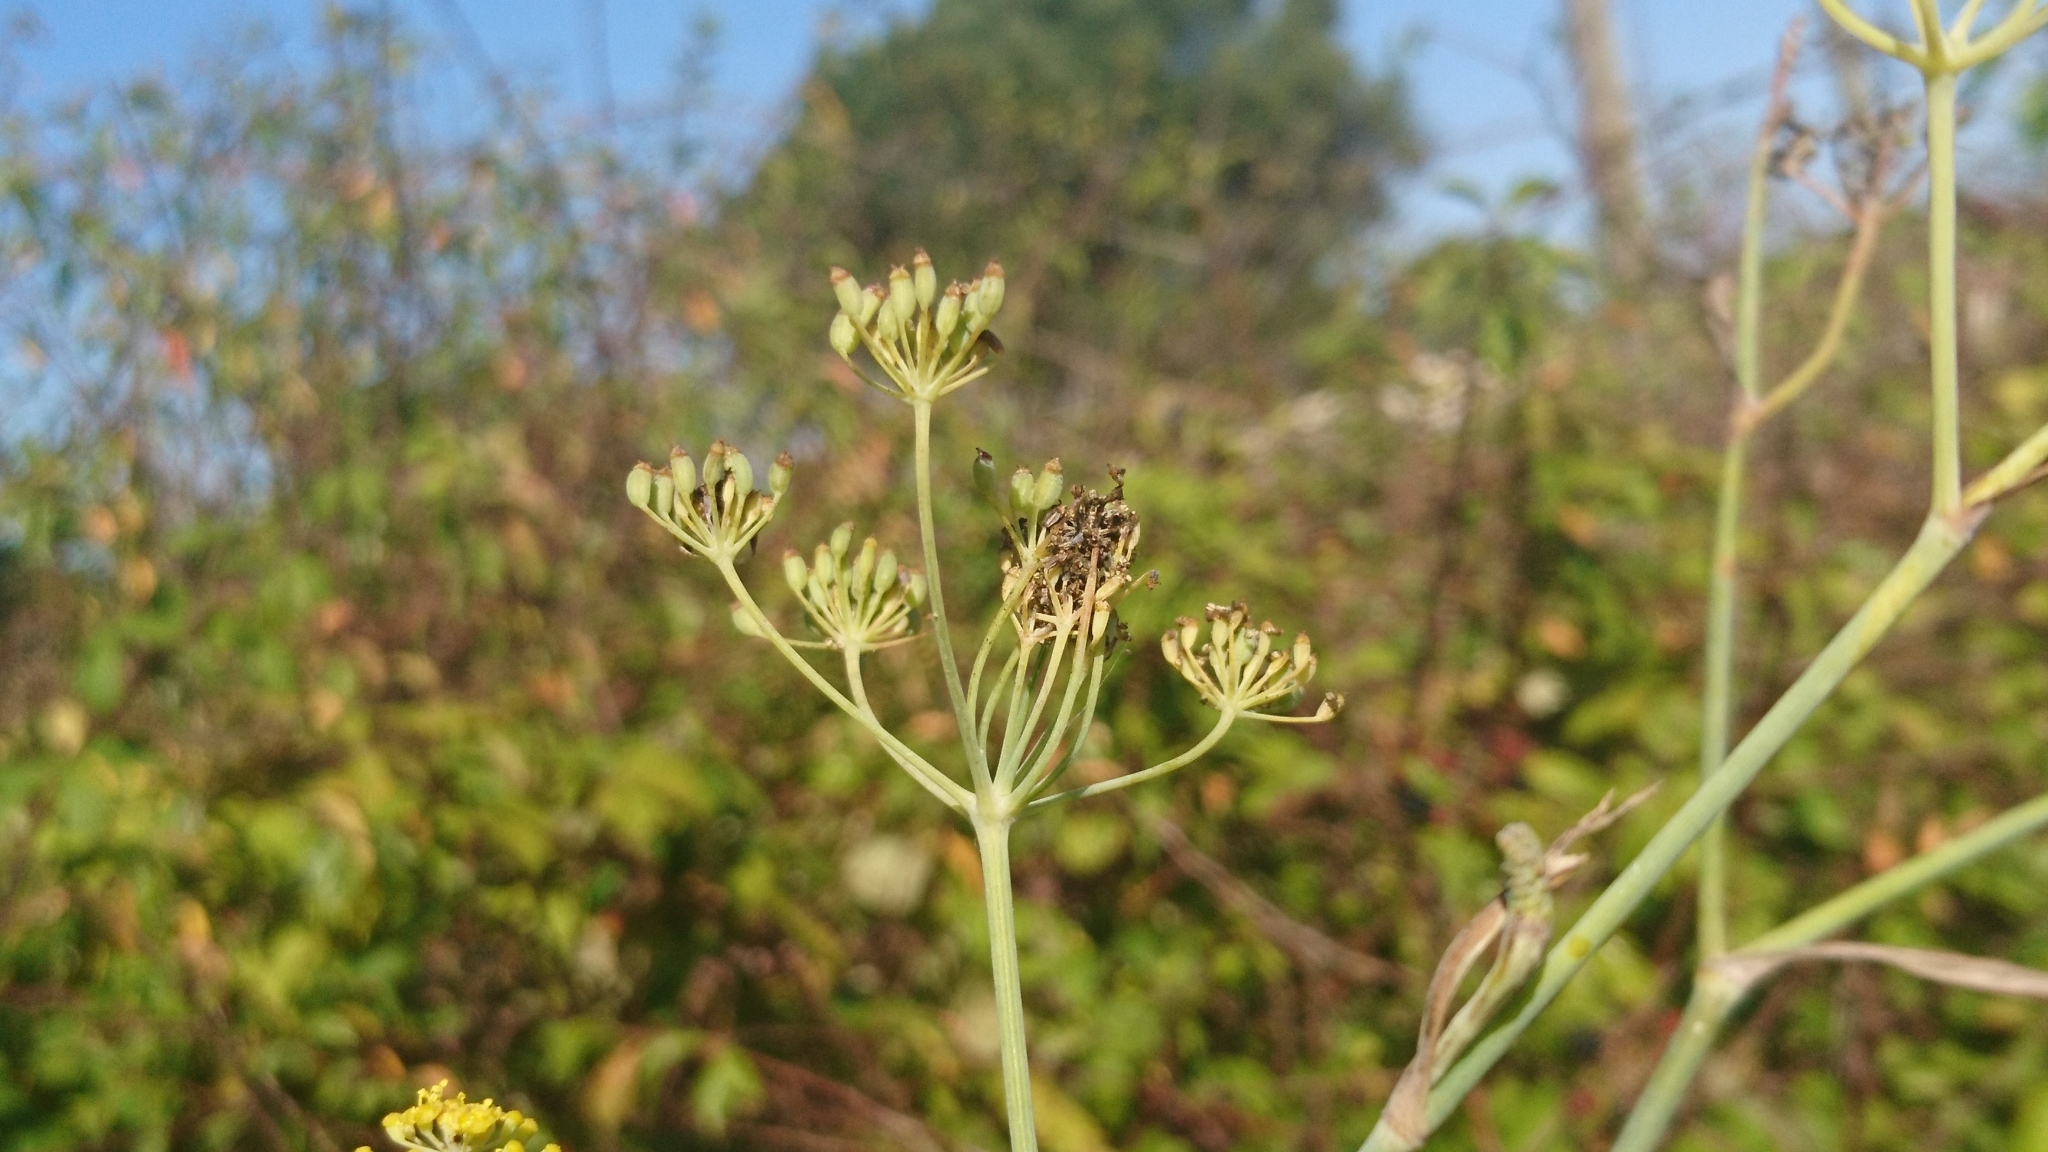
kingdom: Plantae
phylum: Tracheophyta
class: Magnoliopsida
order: Apiales
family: Apiaceae
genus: Foeniculum
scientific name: Foeniculum vulgare
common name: Fennel
